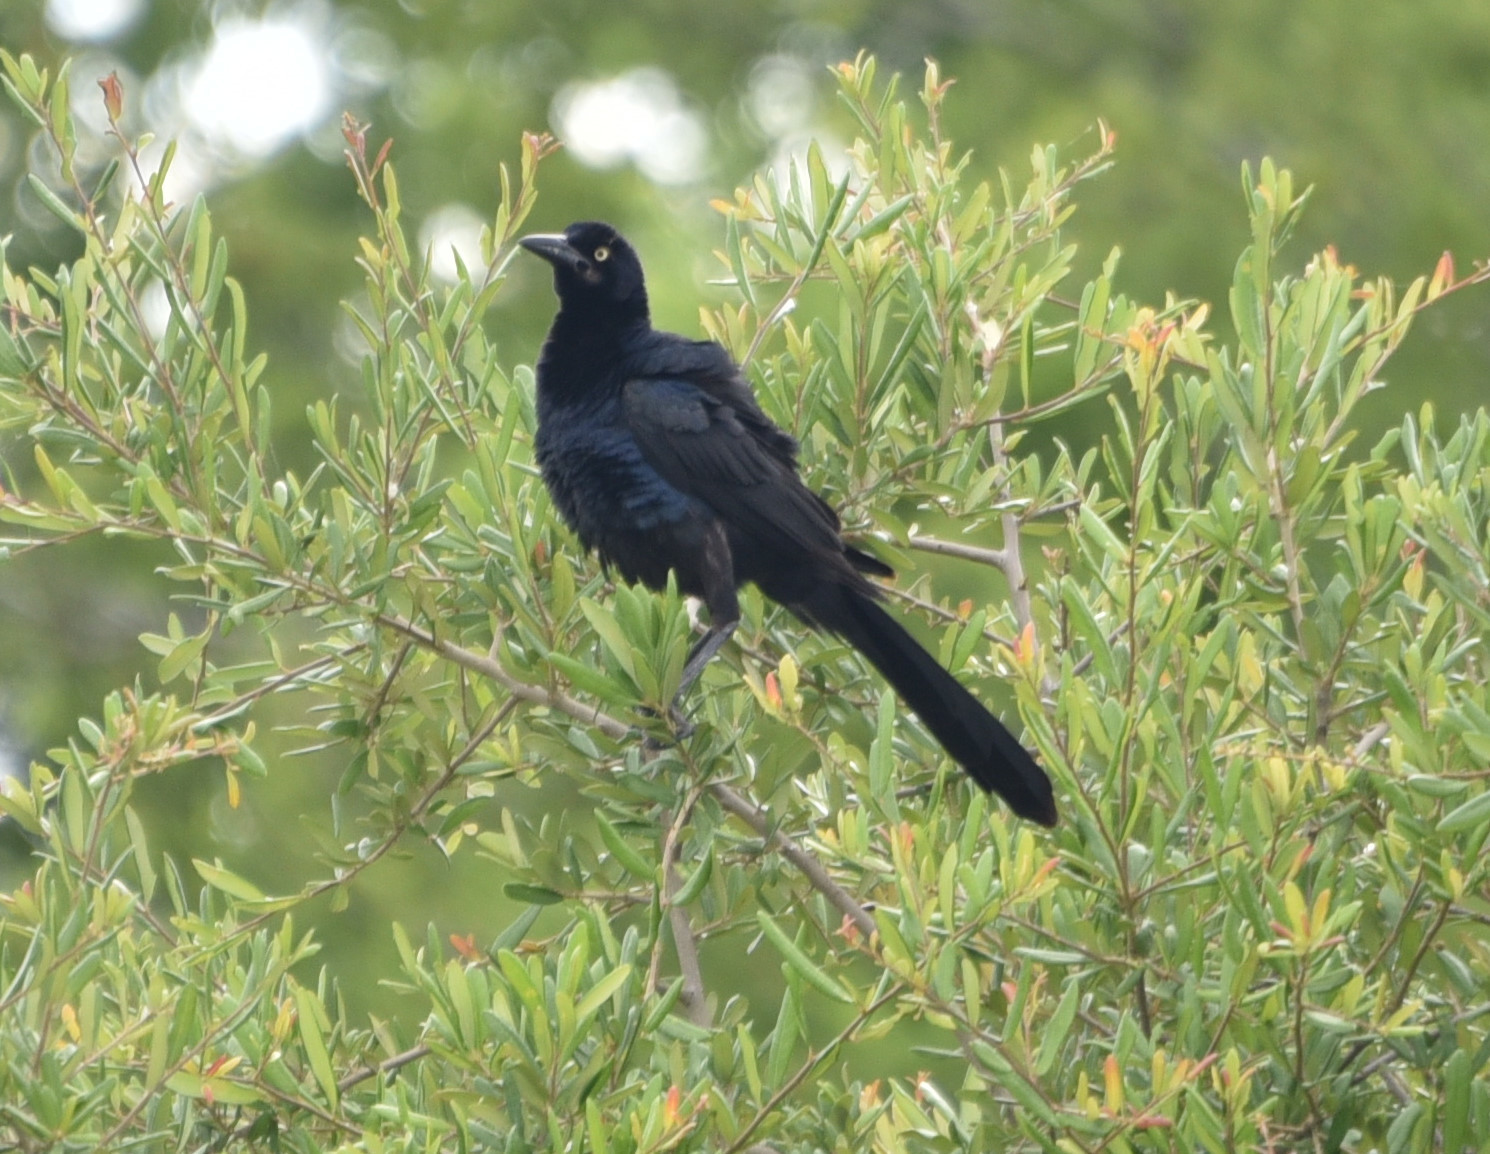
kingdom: Animalia
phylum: Chordata
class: Aves
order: Passeriformes
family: Icteridae
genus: Quiscalus
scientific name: Quiscalus mexicanus
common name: Great-tailed grackle
